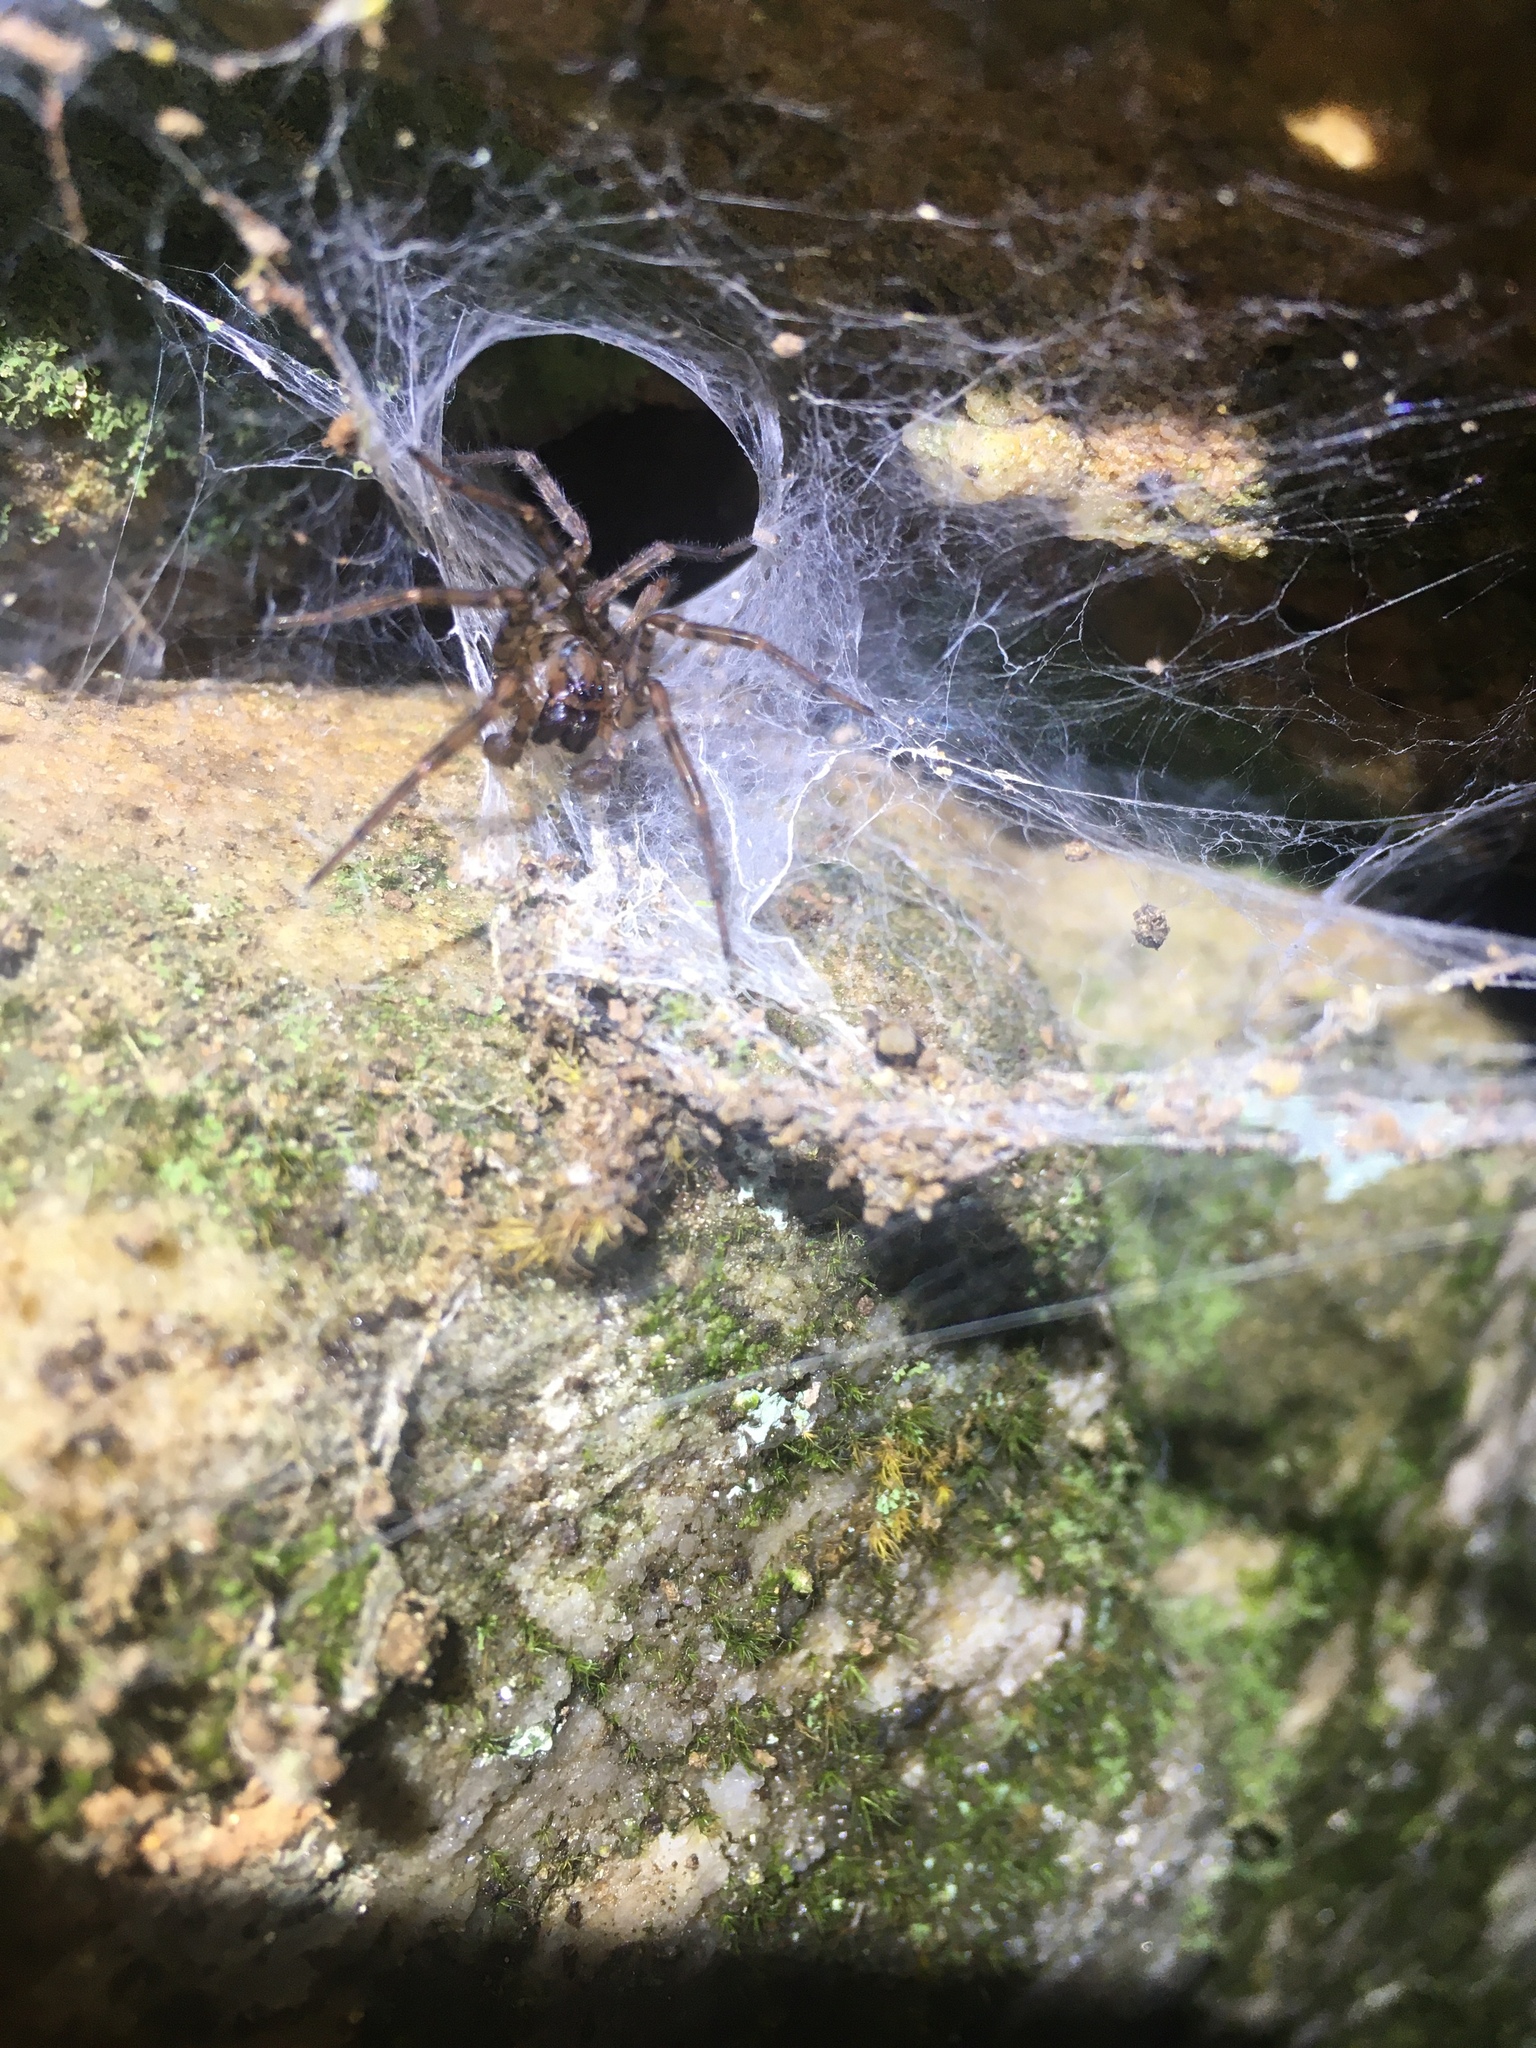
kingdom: Animalia
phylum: Arthropoda
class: Arachnida
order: Araneae
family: Agelenidae
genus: Coras
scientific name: Coras
